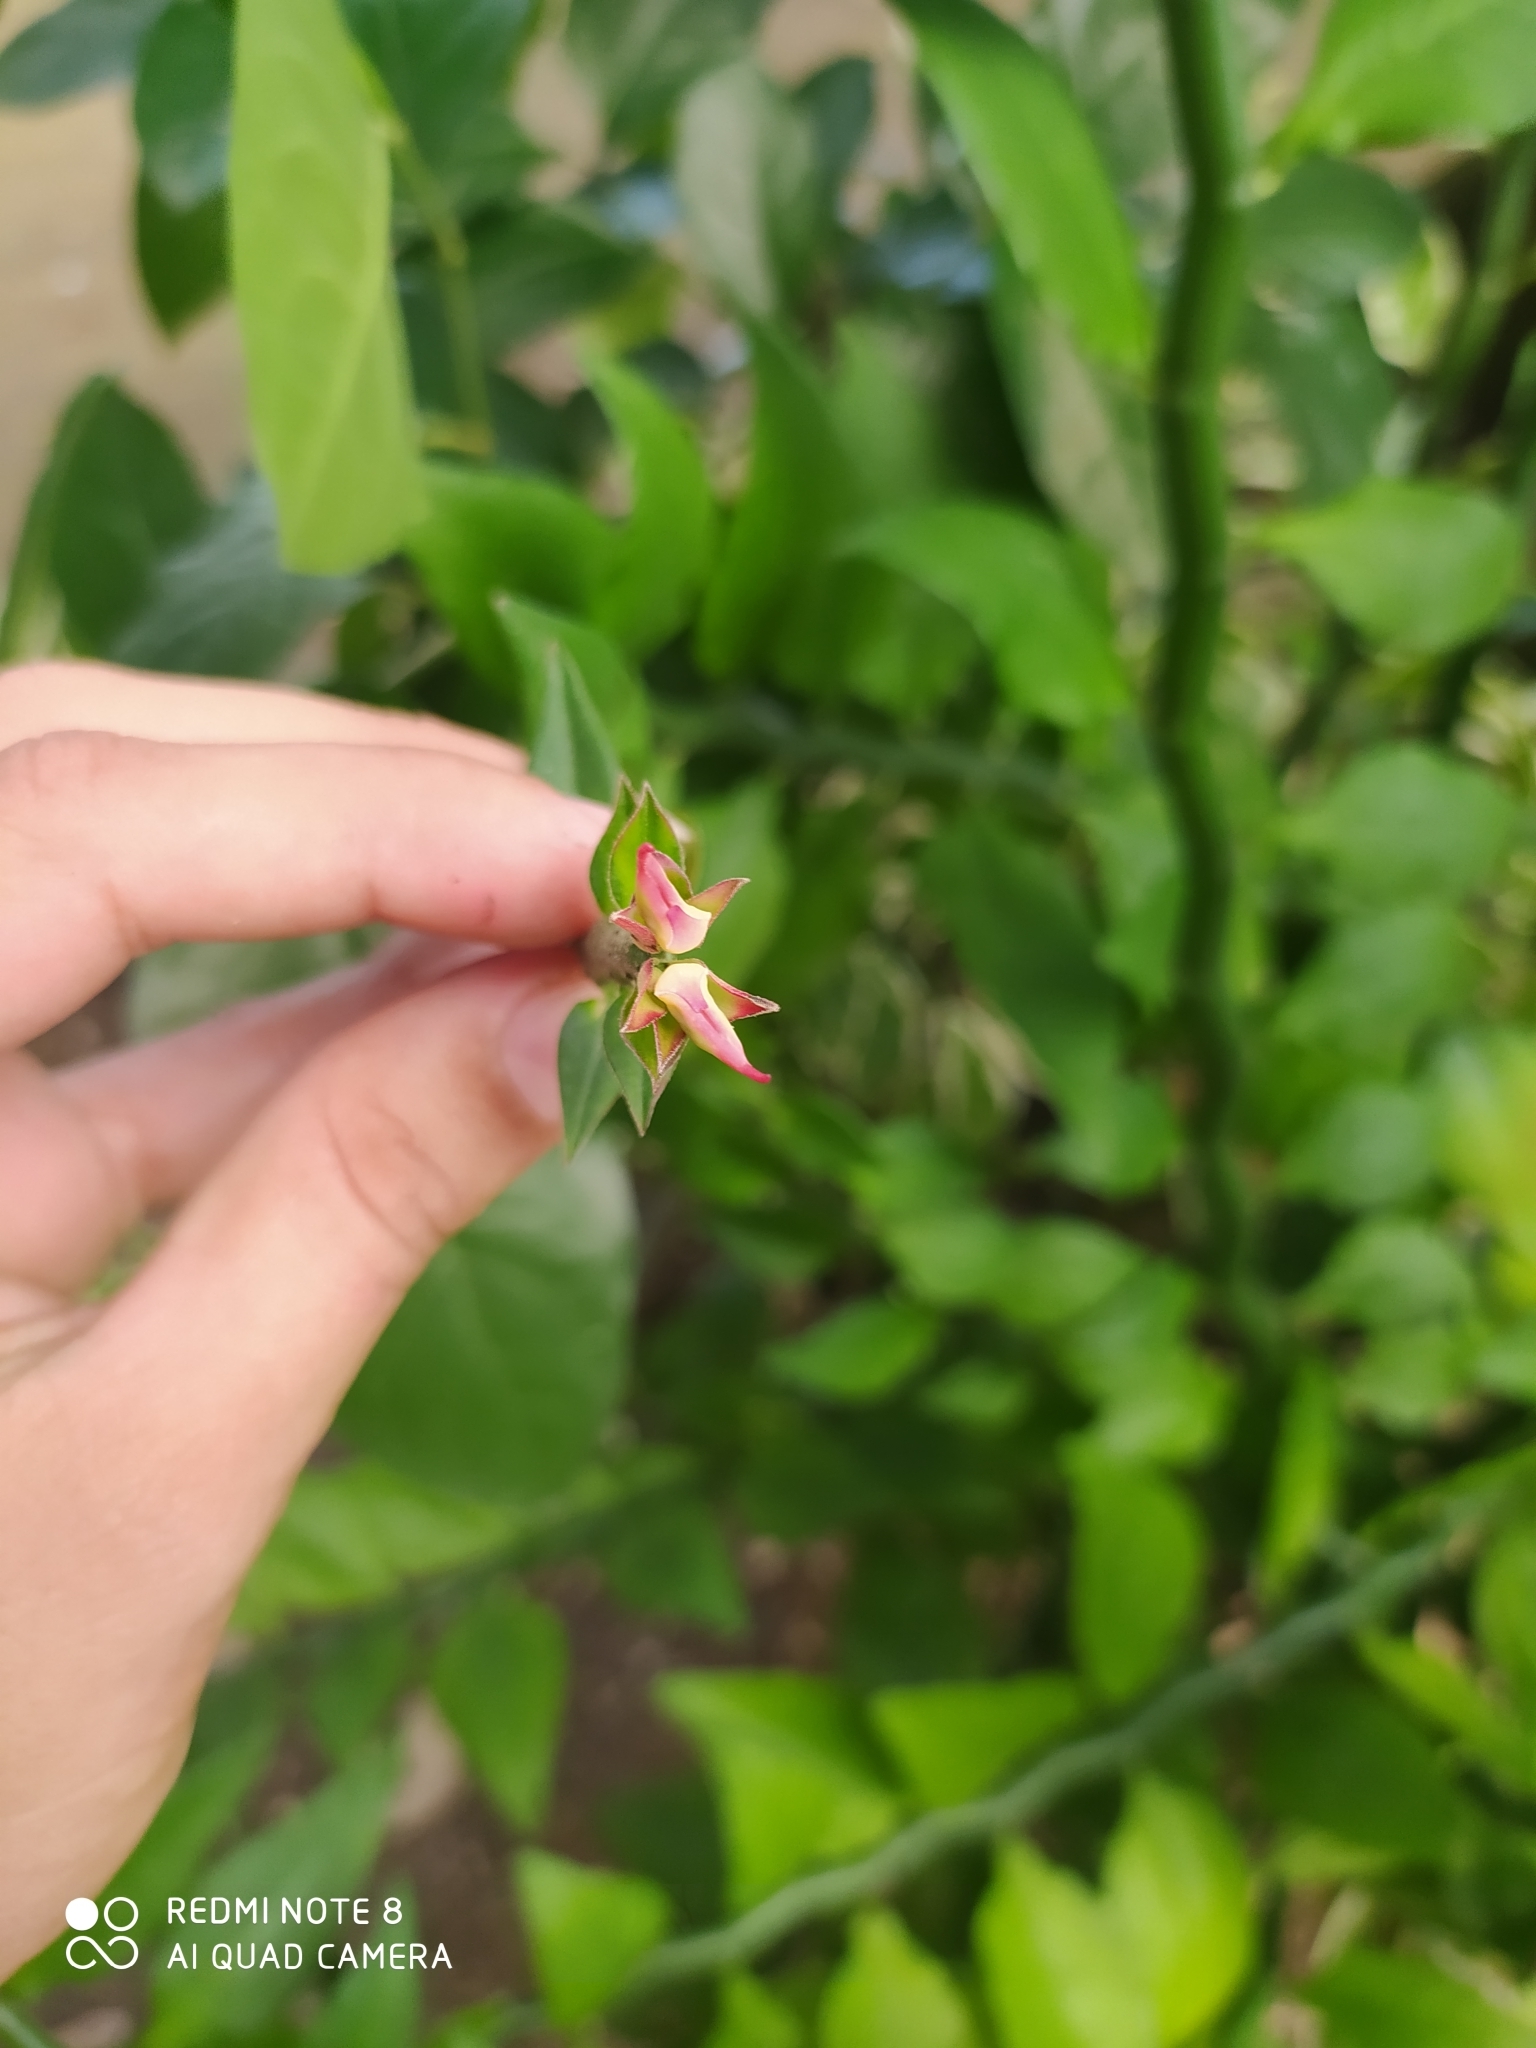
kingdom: Plantae
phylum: Tracheophyta
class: Magnoliopsida
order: Malpighiales
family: Euphorbiaceae
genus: Euphorbia
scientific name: Euphorbia tithymaloides
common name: Slipperplant
